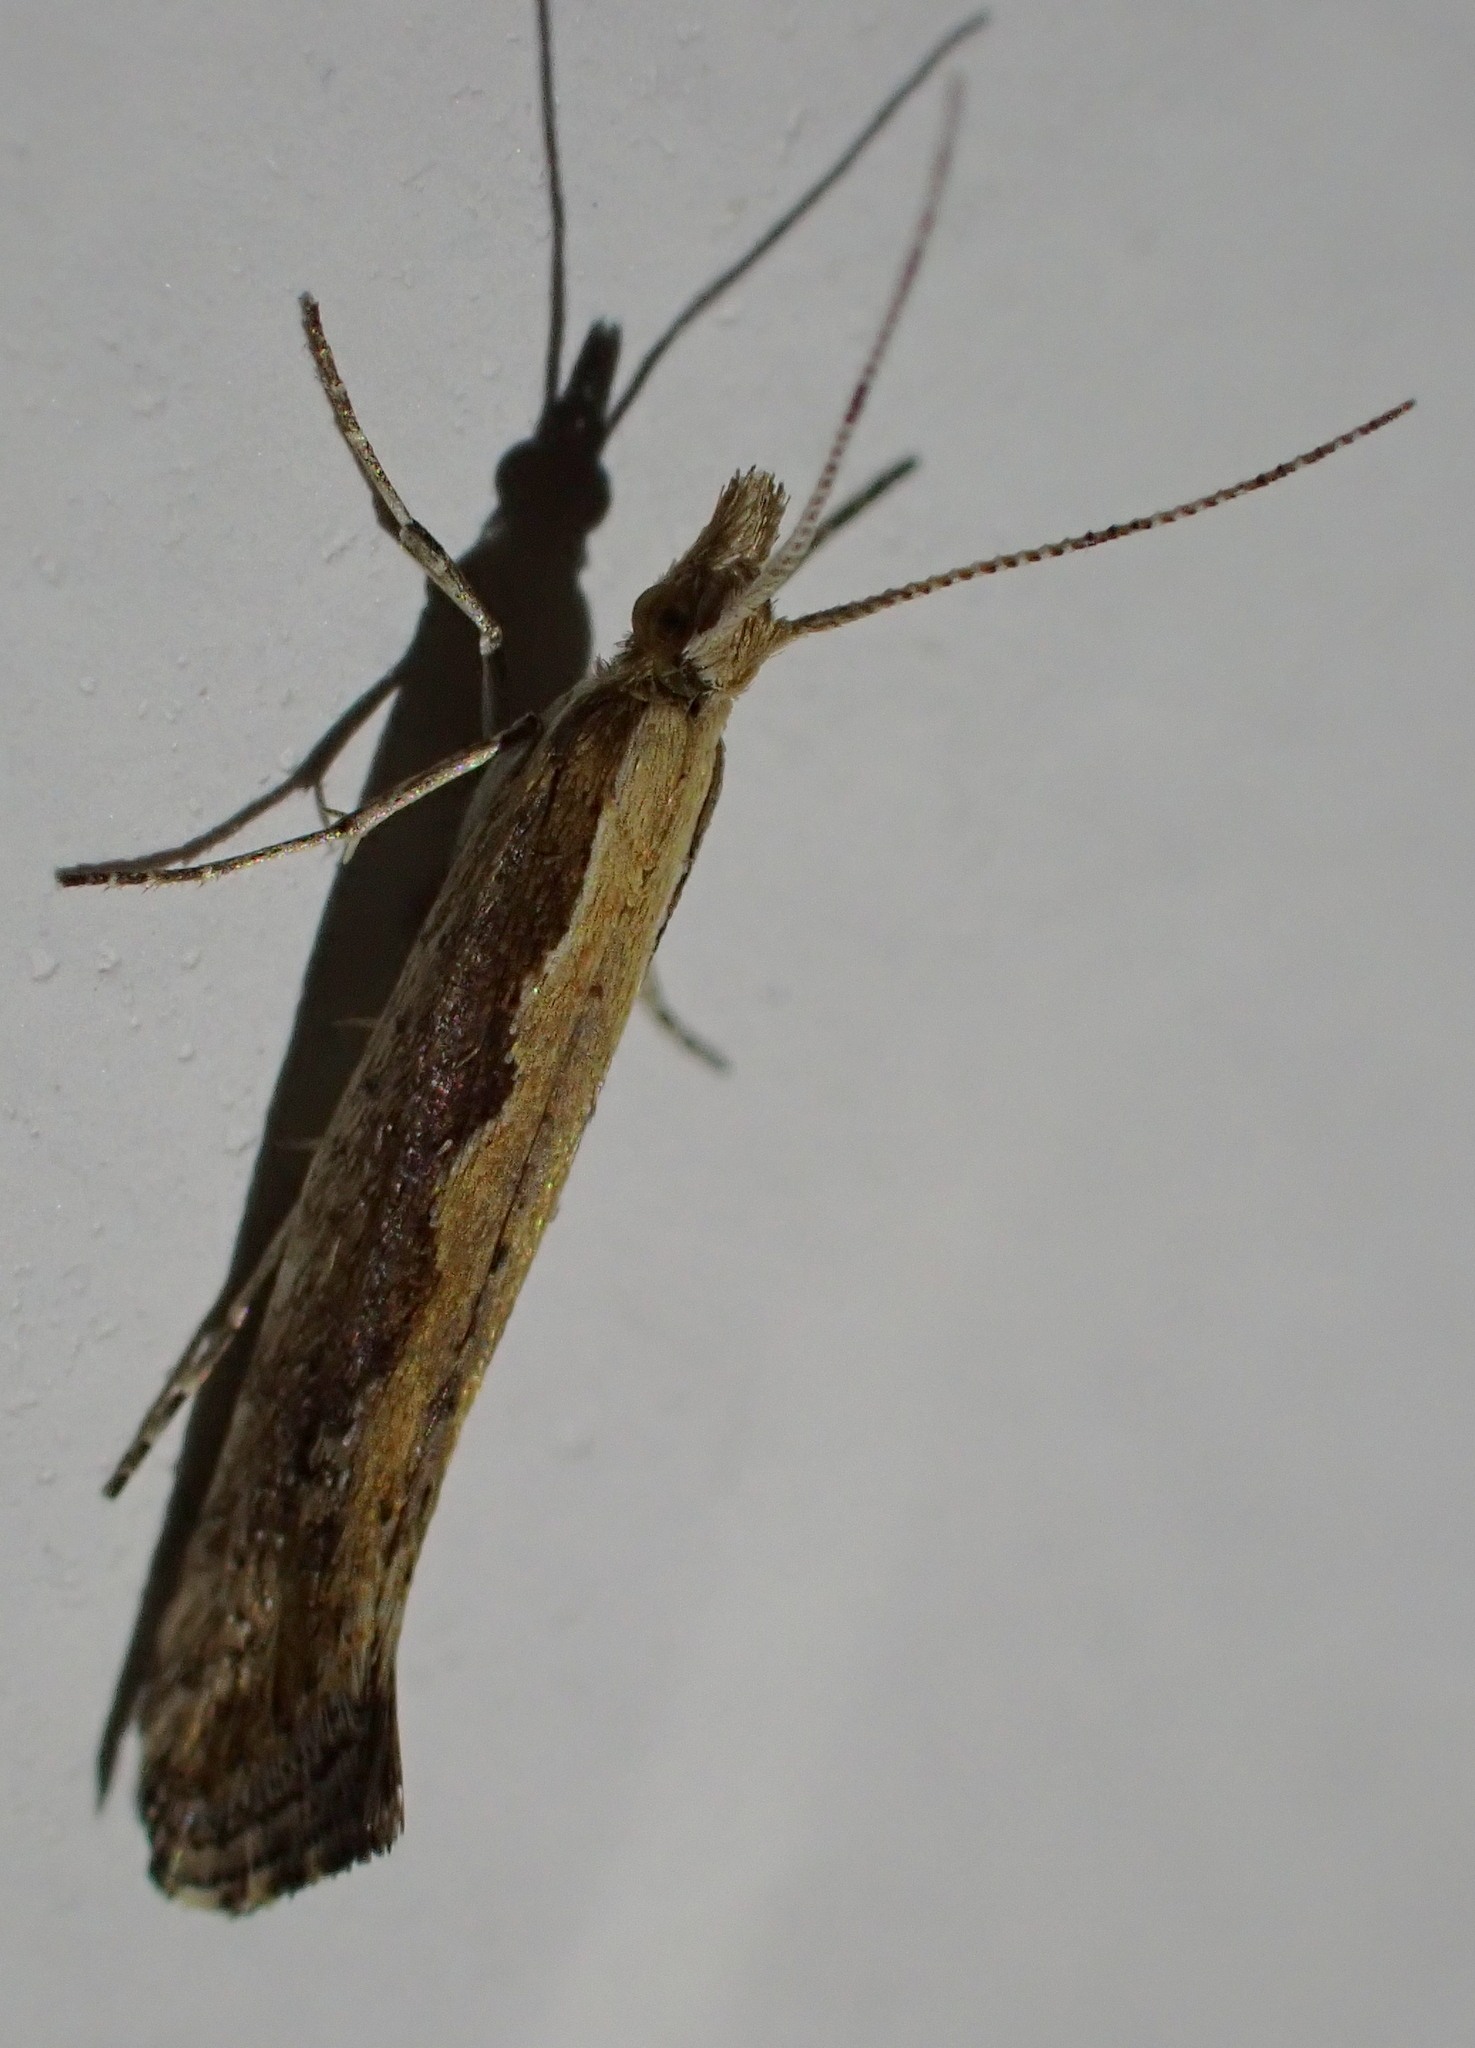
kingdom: Animalia
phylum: Arthropoda
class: Insecta
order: Lepidoptera
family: Plutellidae
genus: Plutella
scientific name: Plutella xylostella
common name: Diamond-back moth
